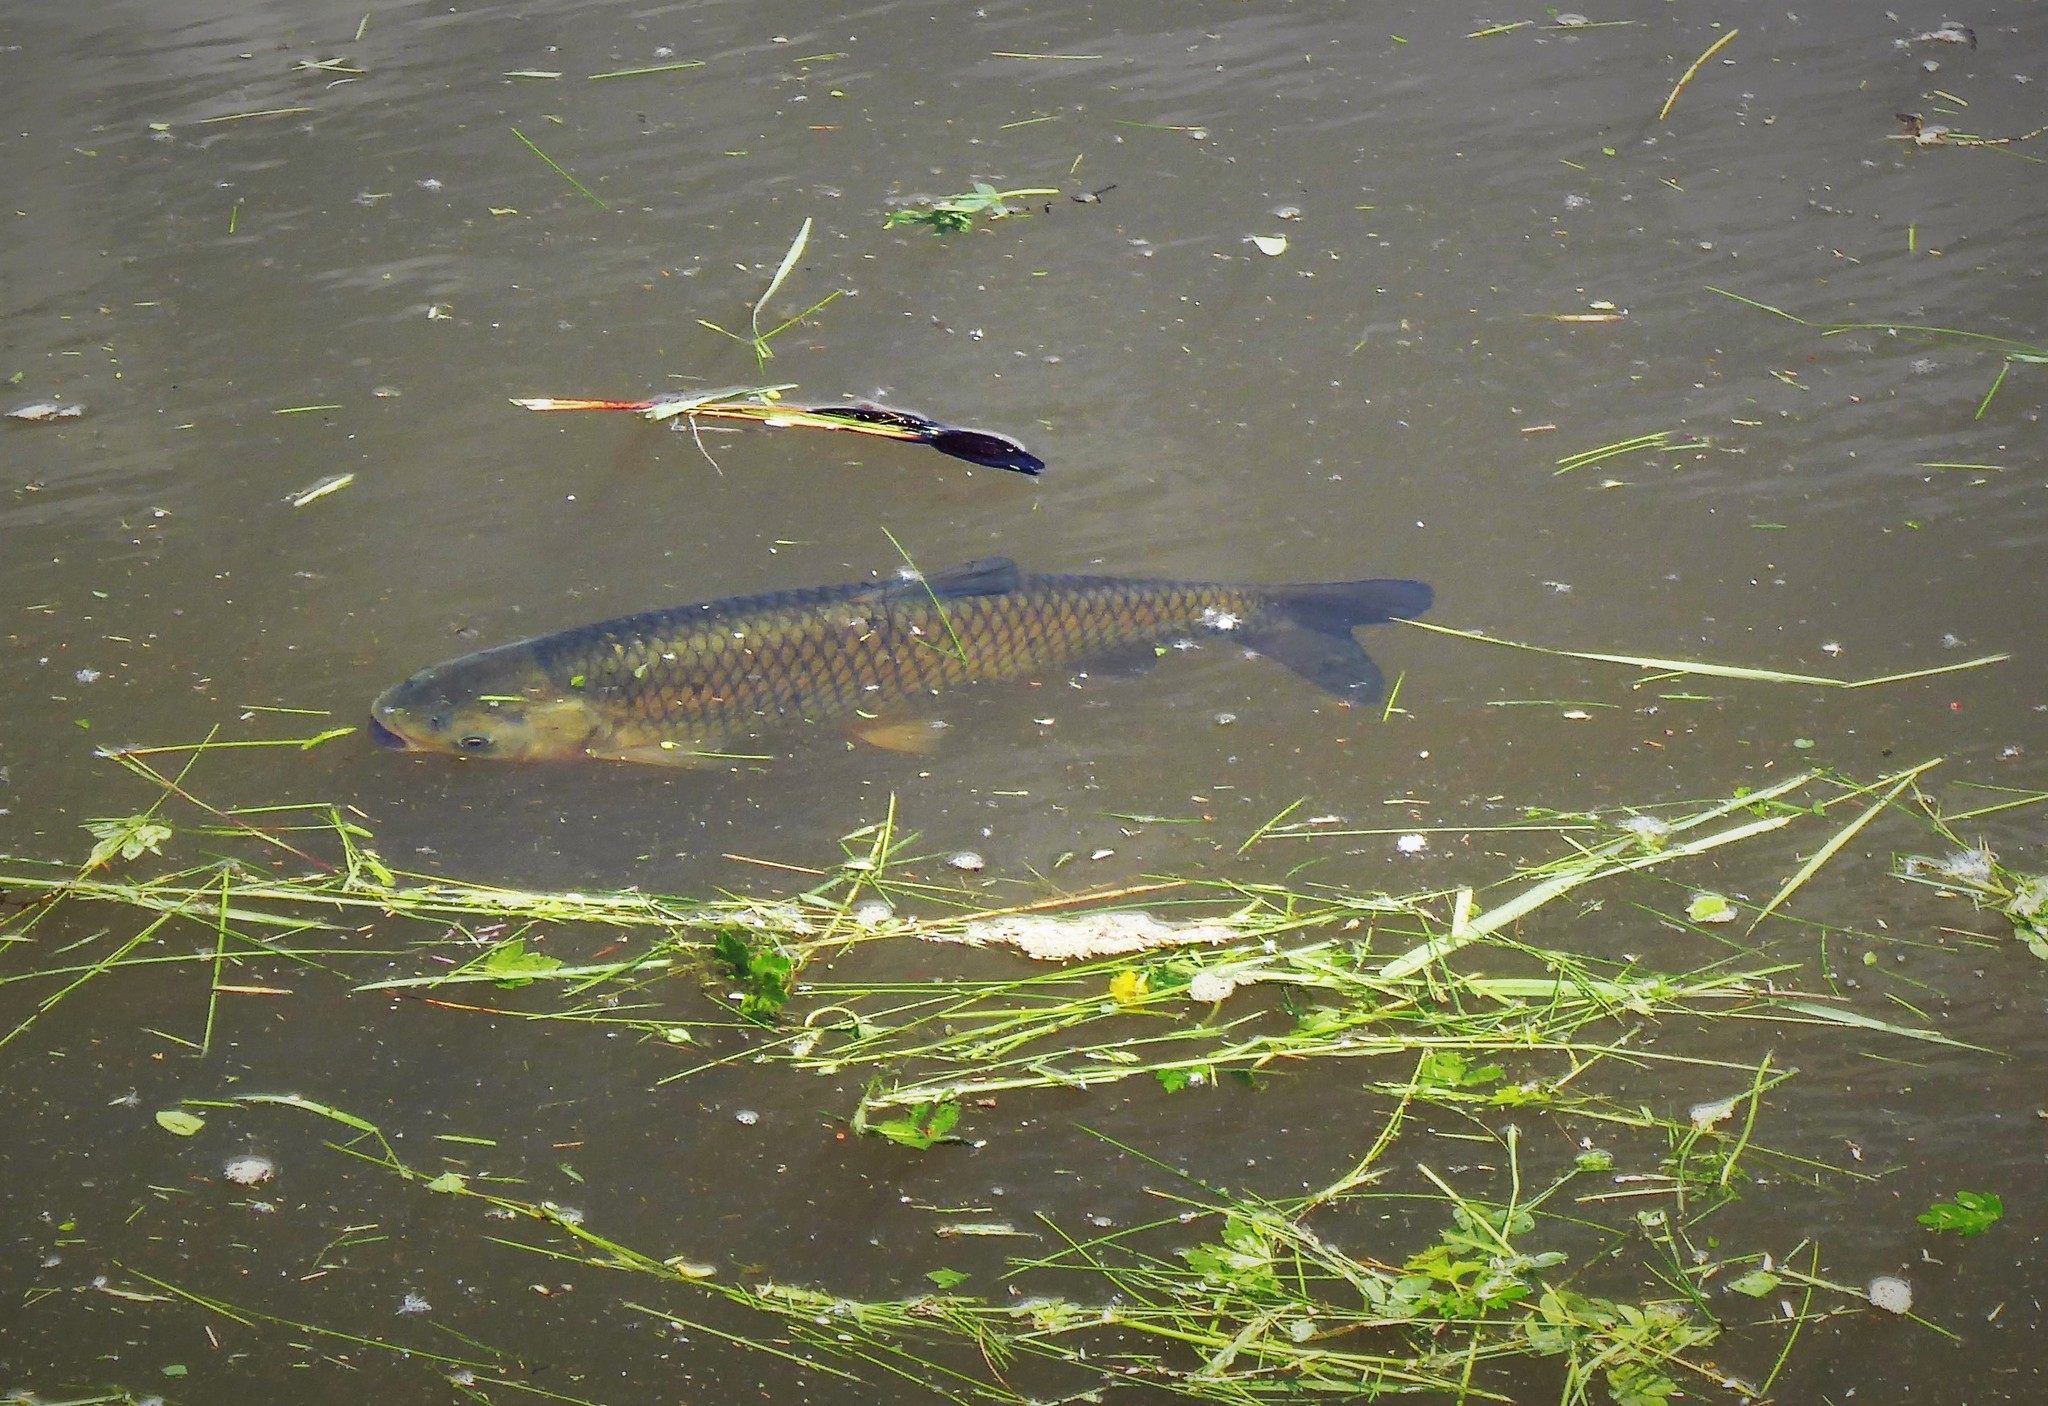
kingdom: Animalia
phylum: Chordata
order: Cypriniformes
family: Cyprinidae
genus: Ctenopharyngodon
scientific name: Ctenopharyngodon idella
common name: Grass carp
